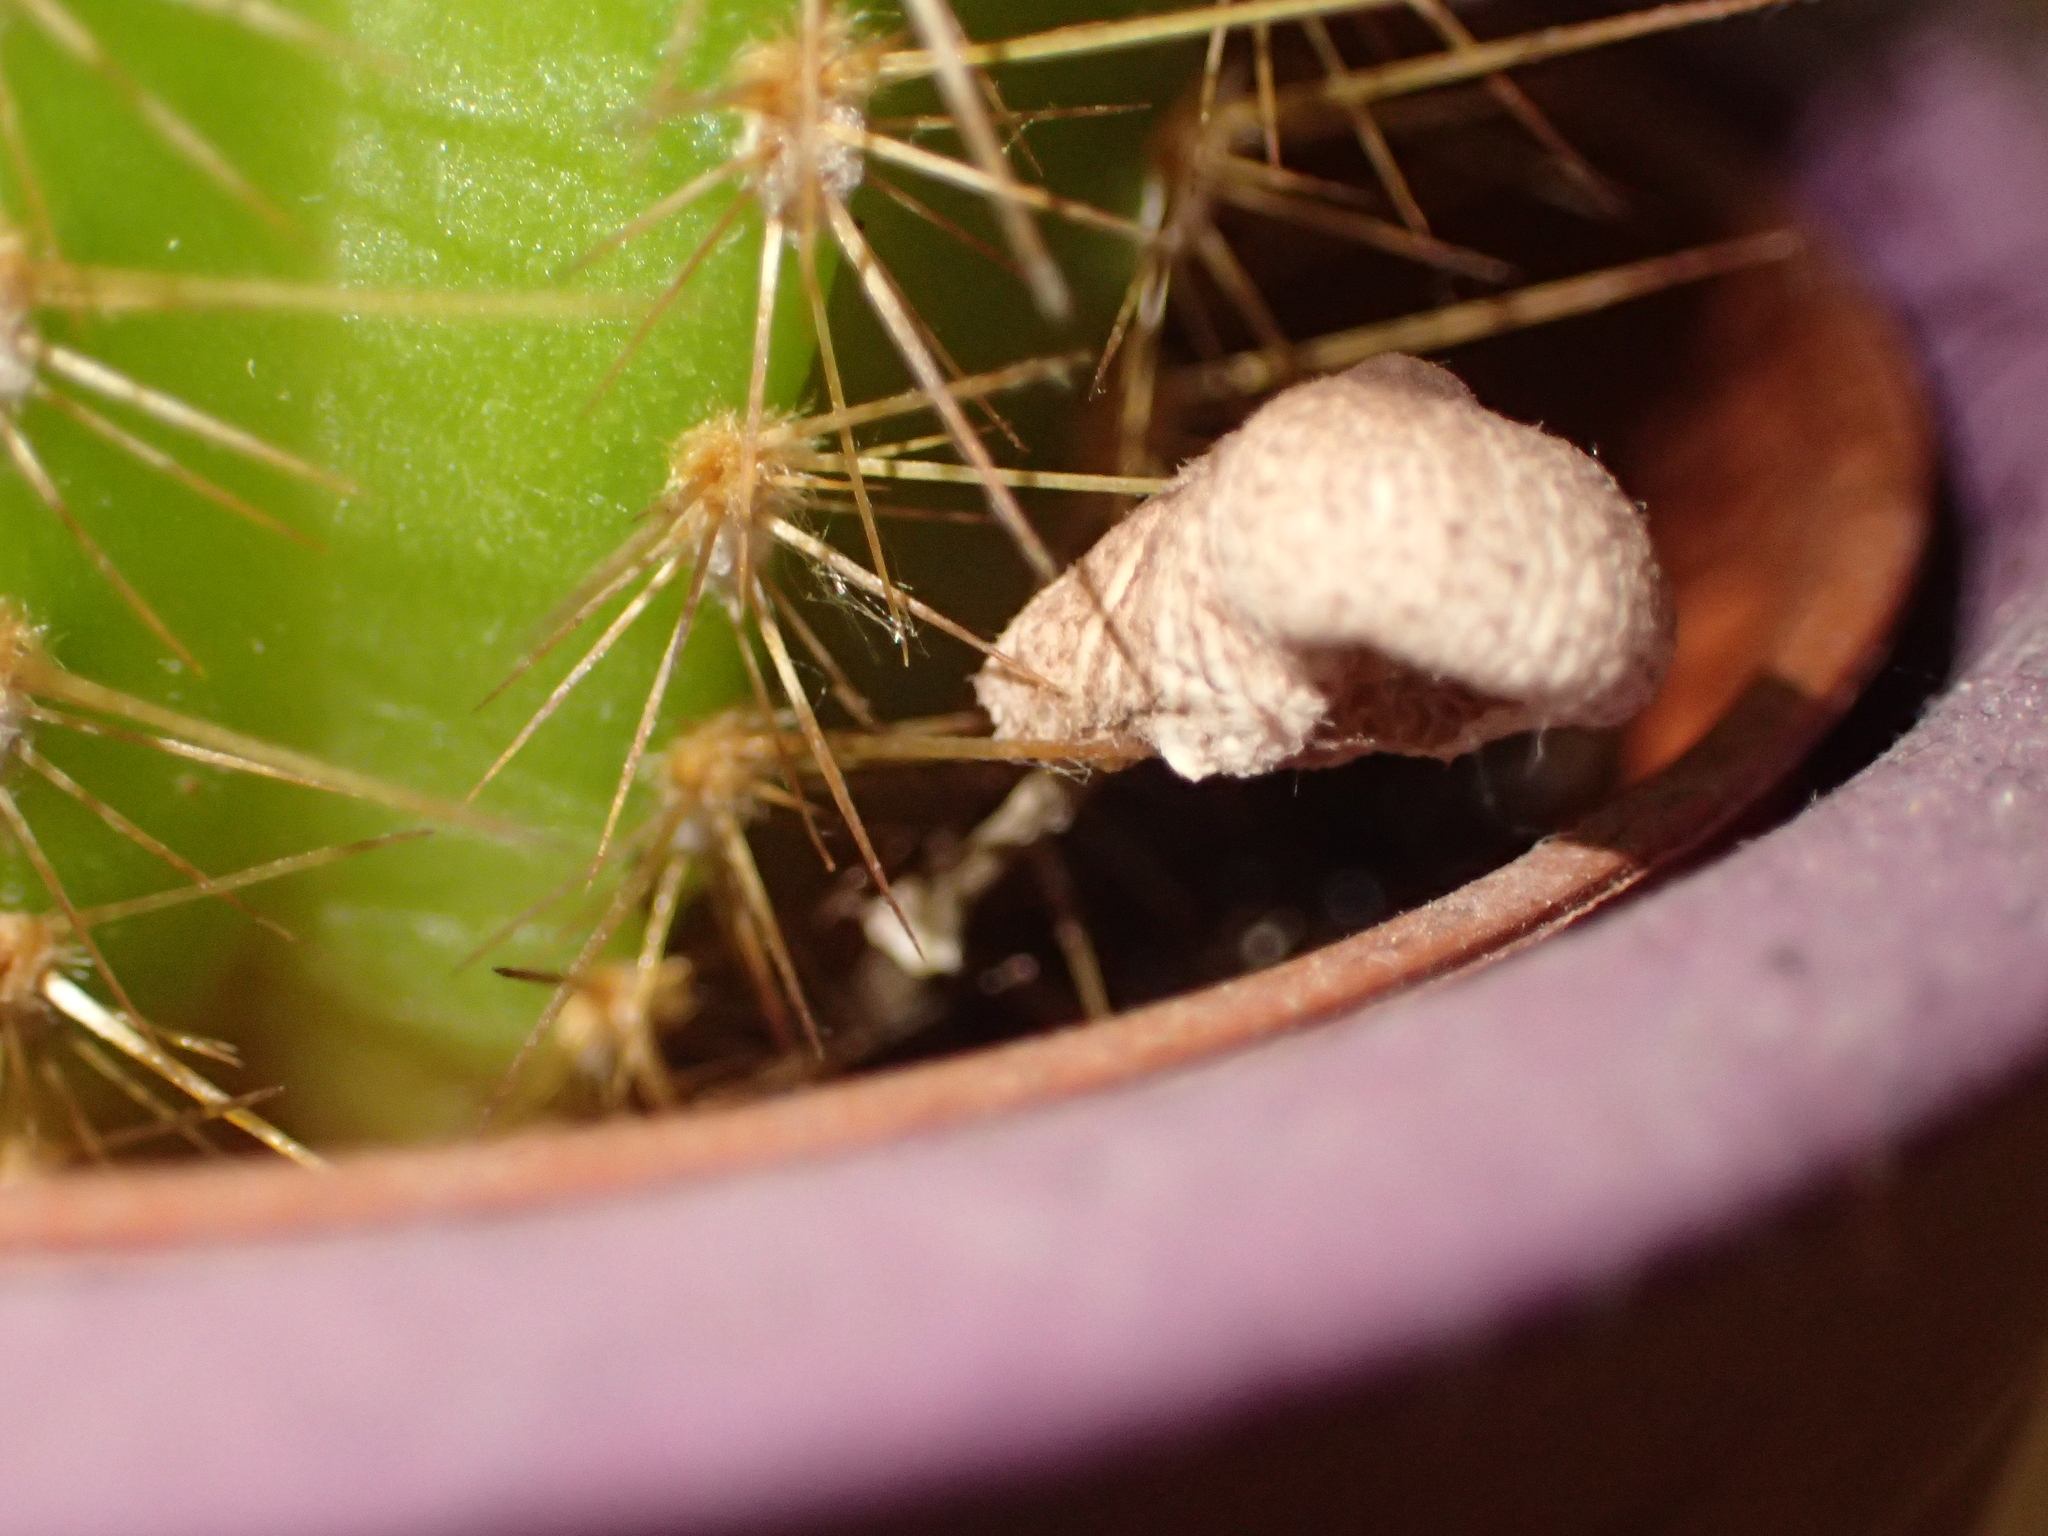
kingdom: Fungi
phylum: Basidiomycota
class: Agaricomycetes
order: Agaricales
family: Agaricaceae
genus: Leucocoprinus
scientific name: Leucocoprinus ianthinus
